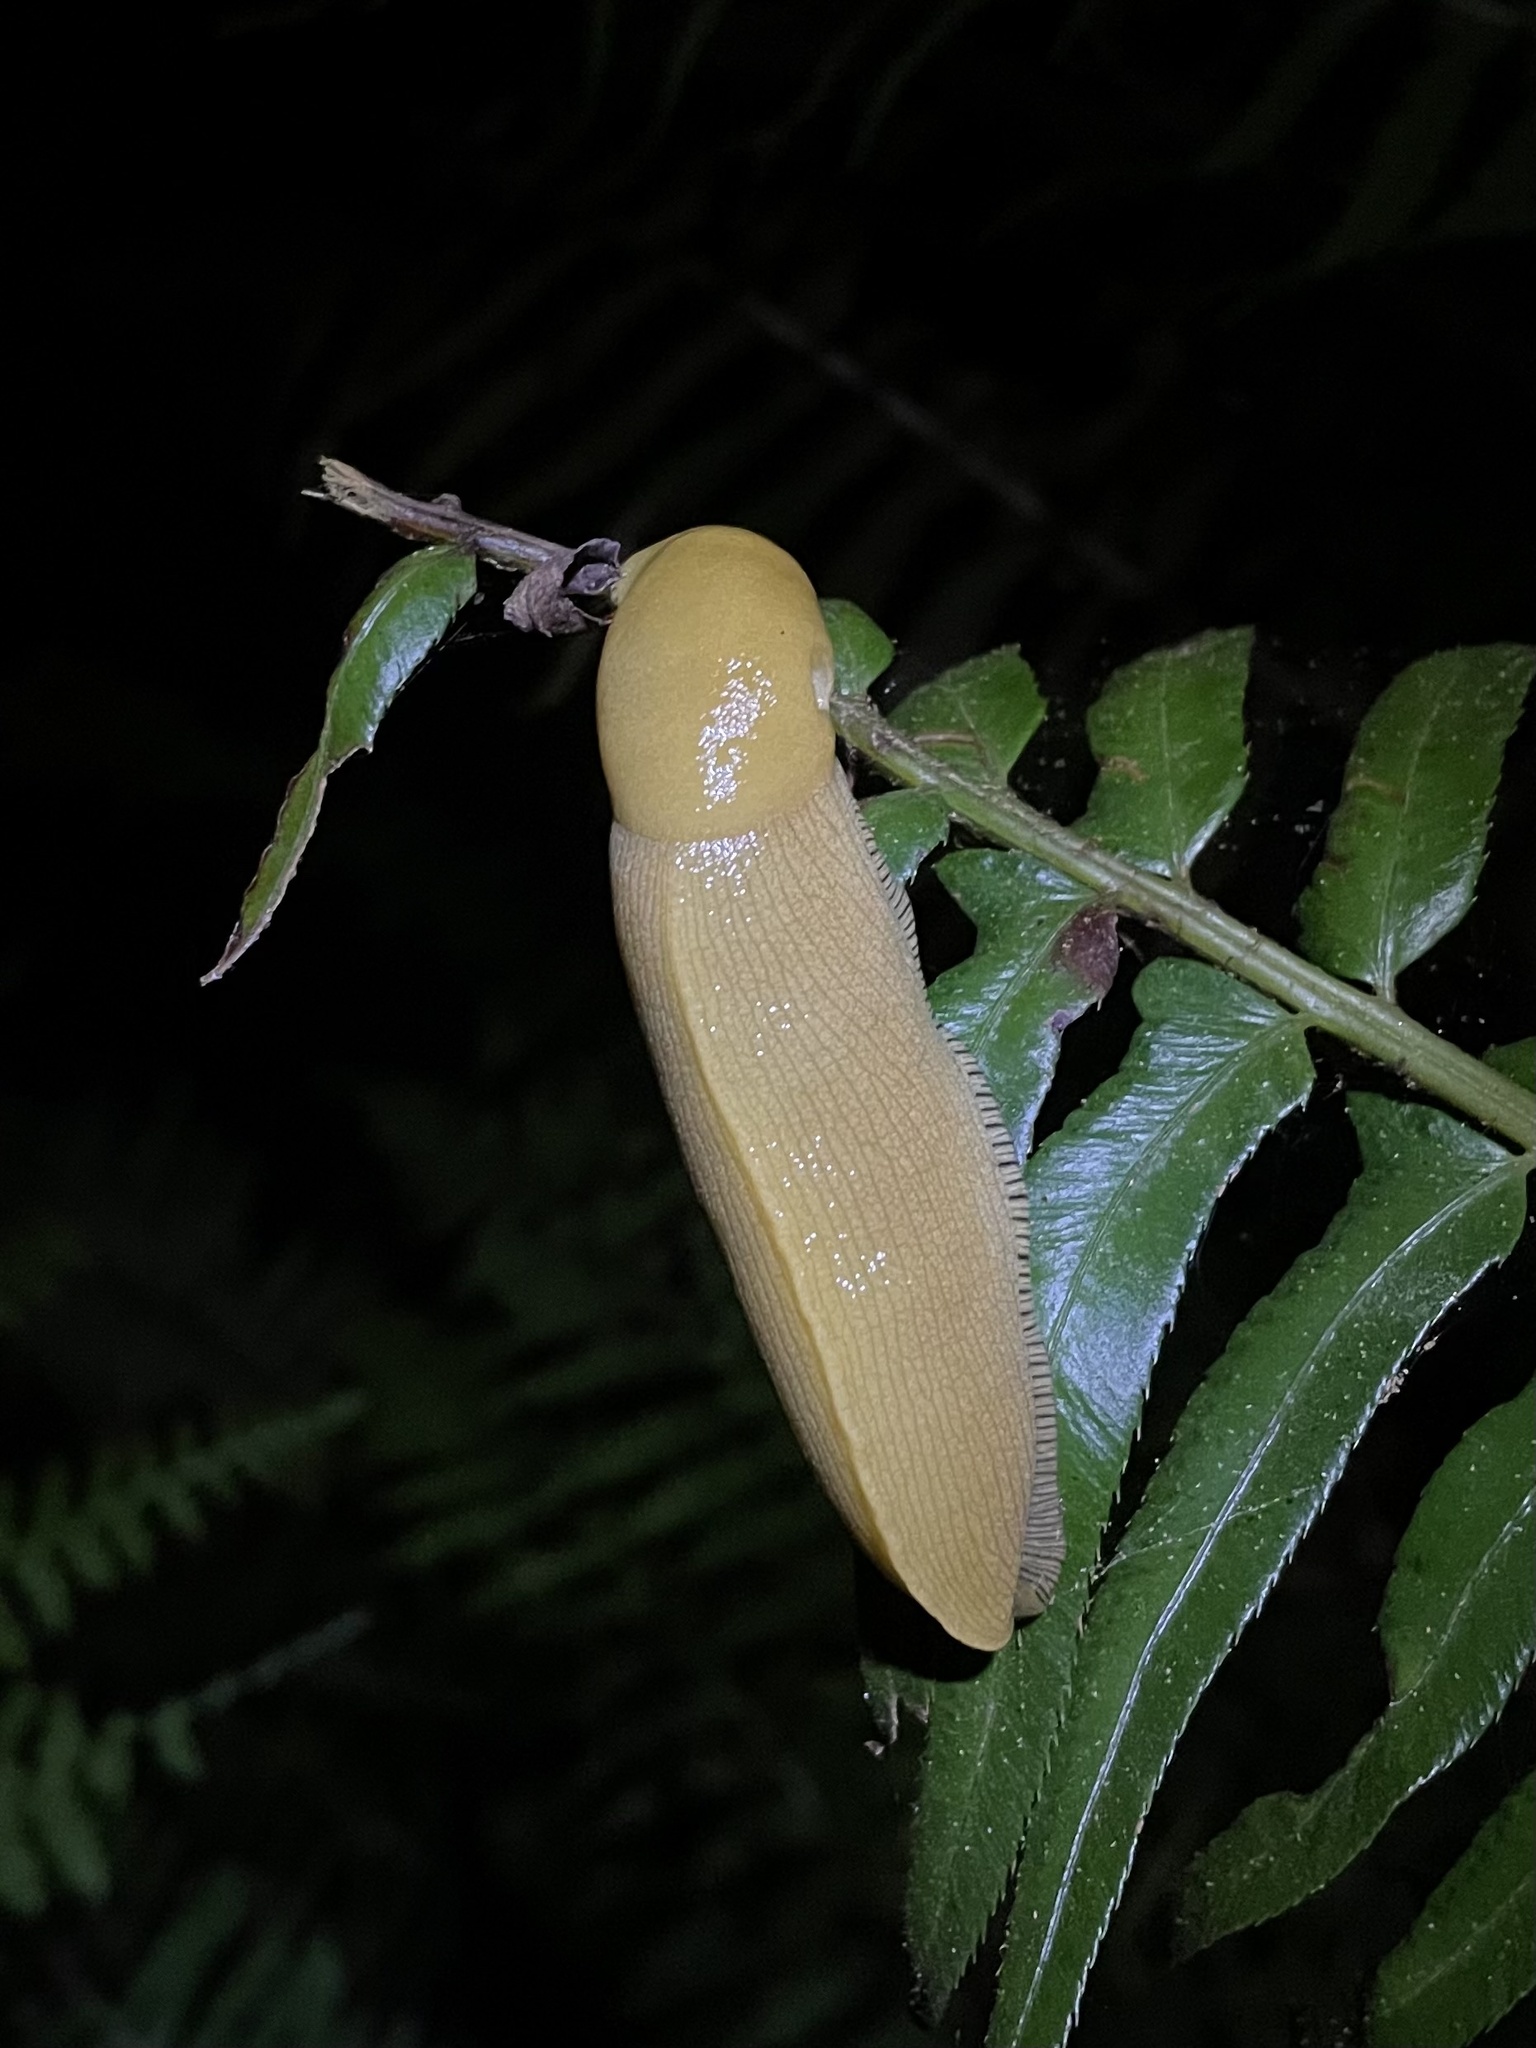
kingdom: Animalia
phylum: Mollusca
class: Gastropoda
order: Stylommatophora
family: Ariolimacidae
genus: Ariolimax
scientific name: Ariolimax buttoni
